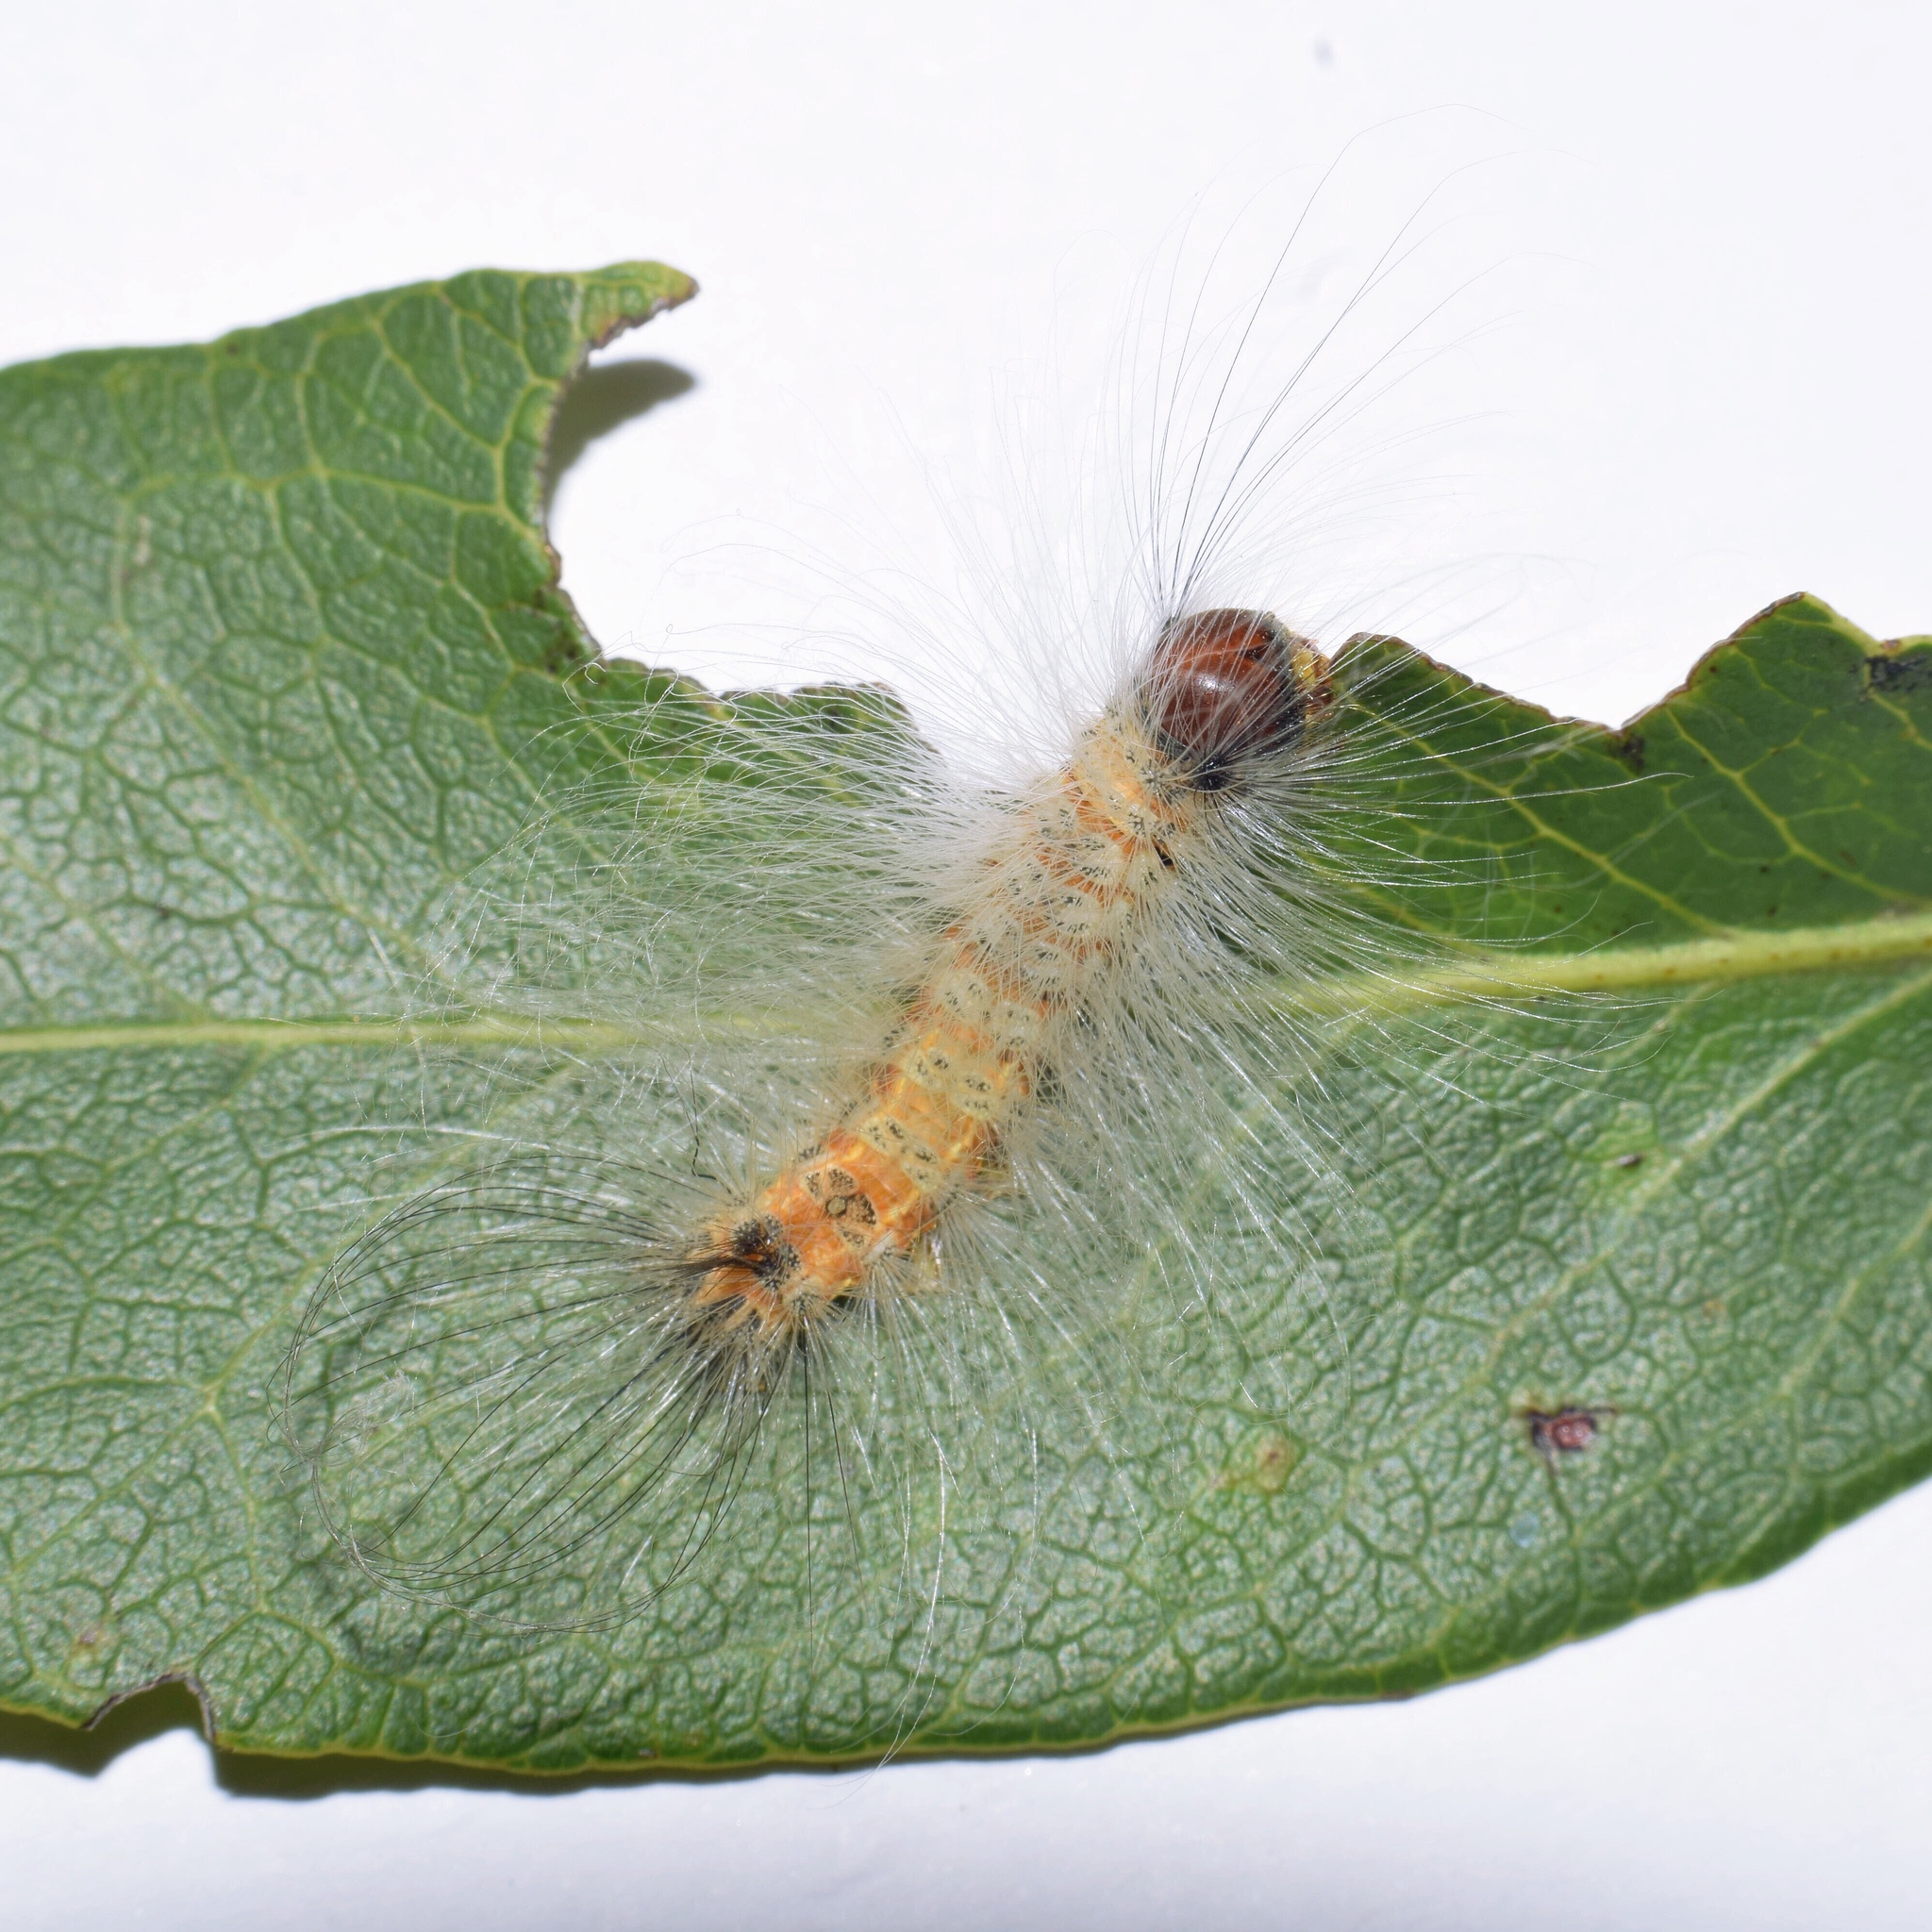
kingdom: Animalia
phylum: Arthropoda
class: Insecta
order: Lepidoptera
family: Erebidae
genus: Dasychira
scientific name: Dasychira georgiana
